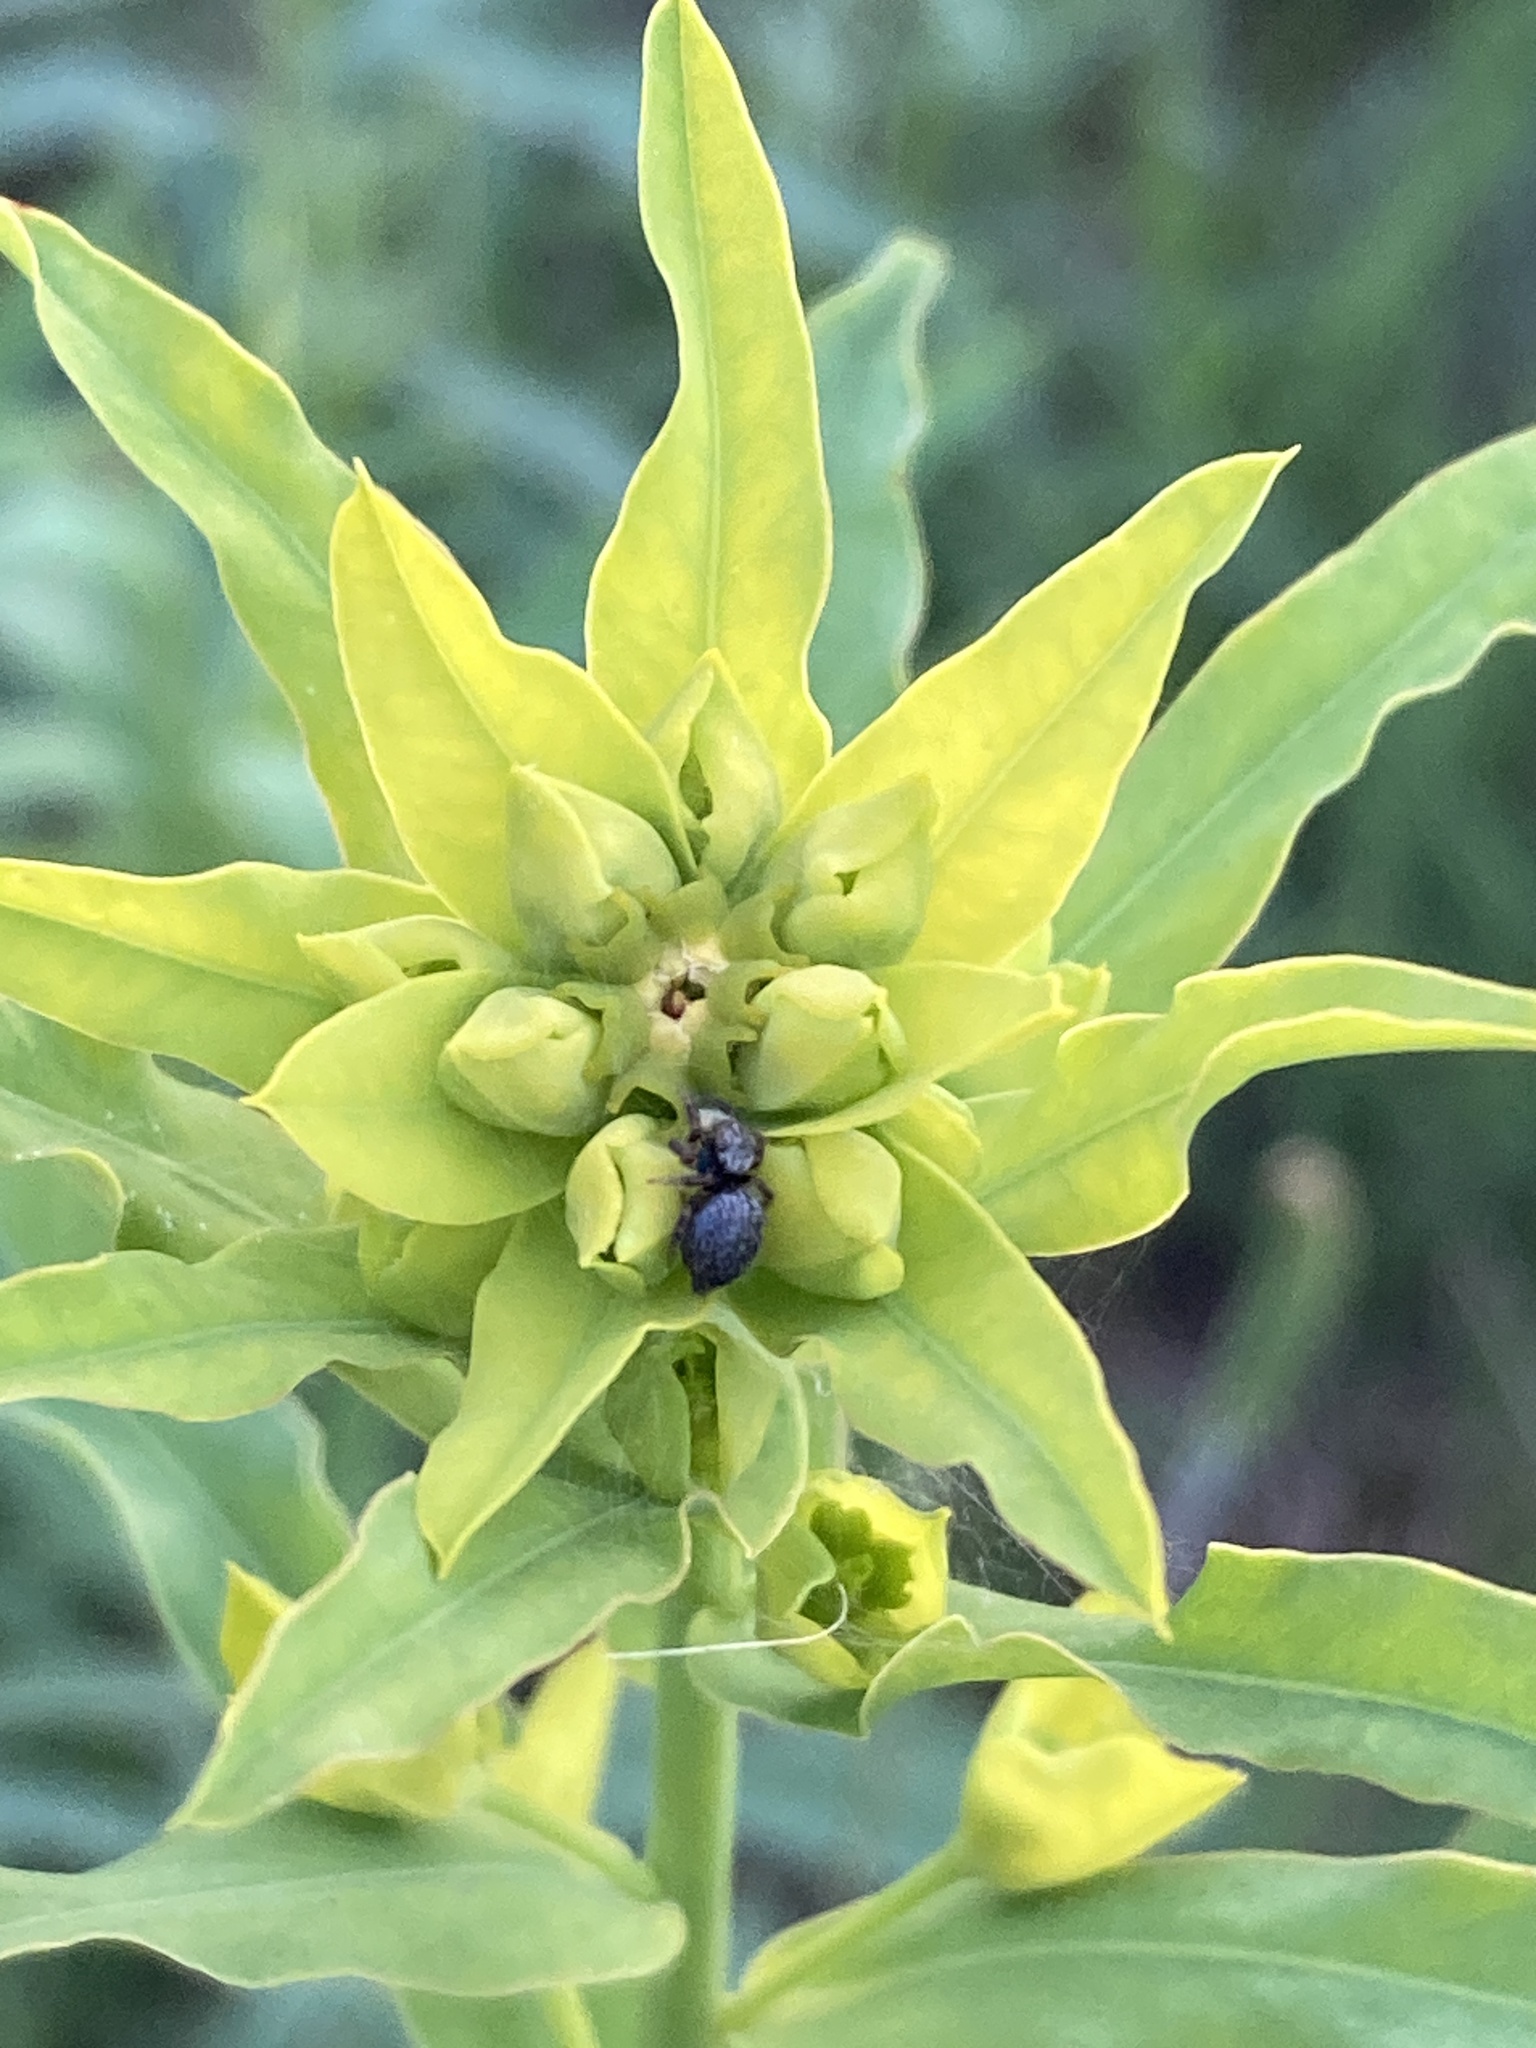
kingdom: Plantae
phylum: Tracheophyta
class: Magnoliopsida
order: Malpighiales
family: Euphorbiaceae
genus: Euphorbia
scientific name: Euphorbia virgata
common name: Leafy spurge
